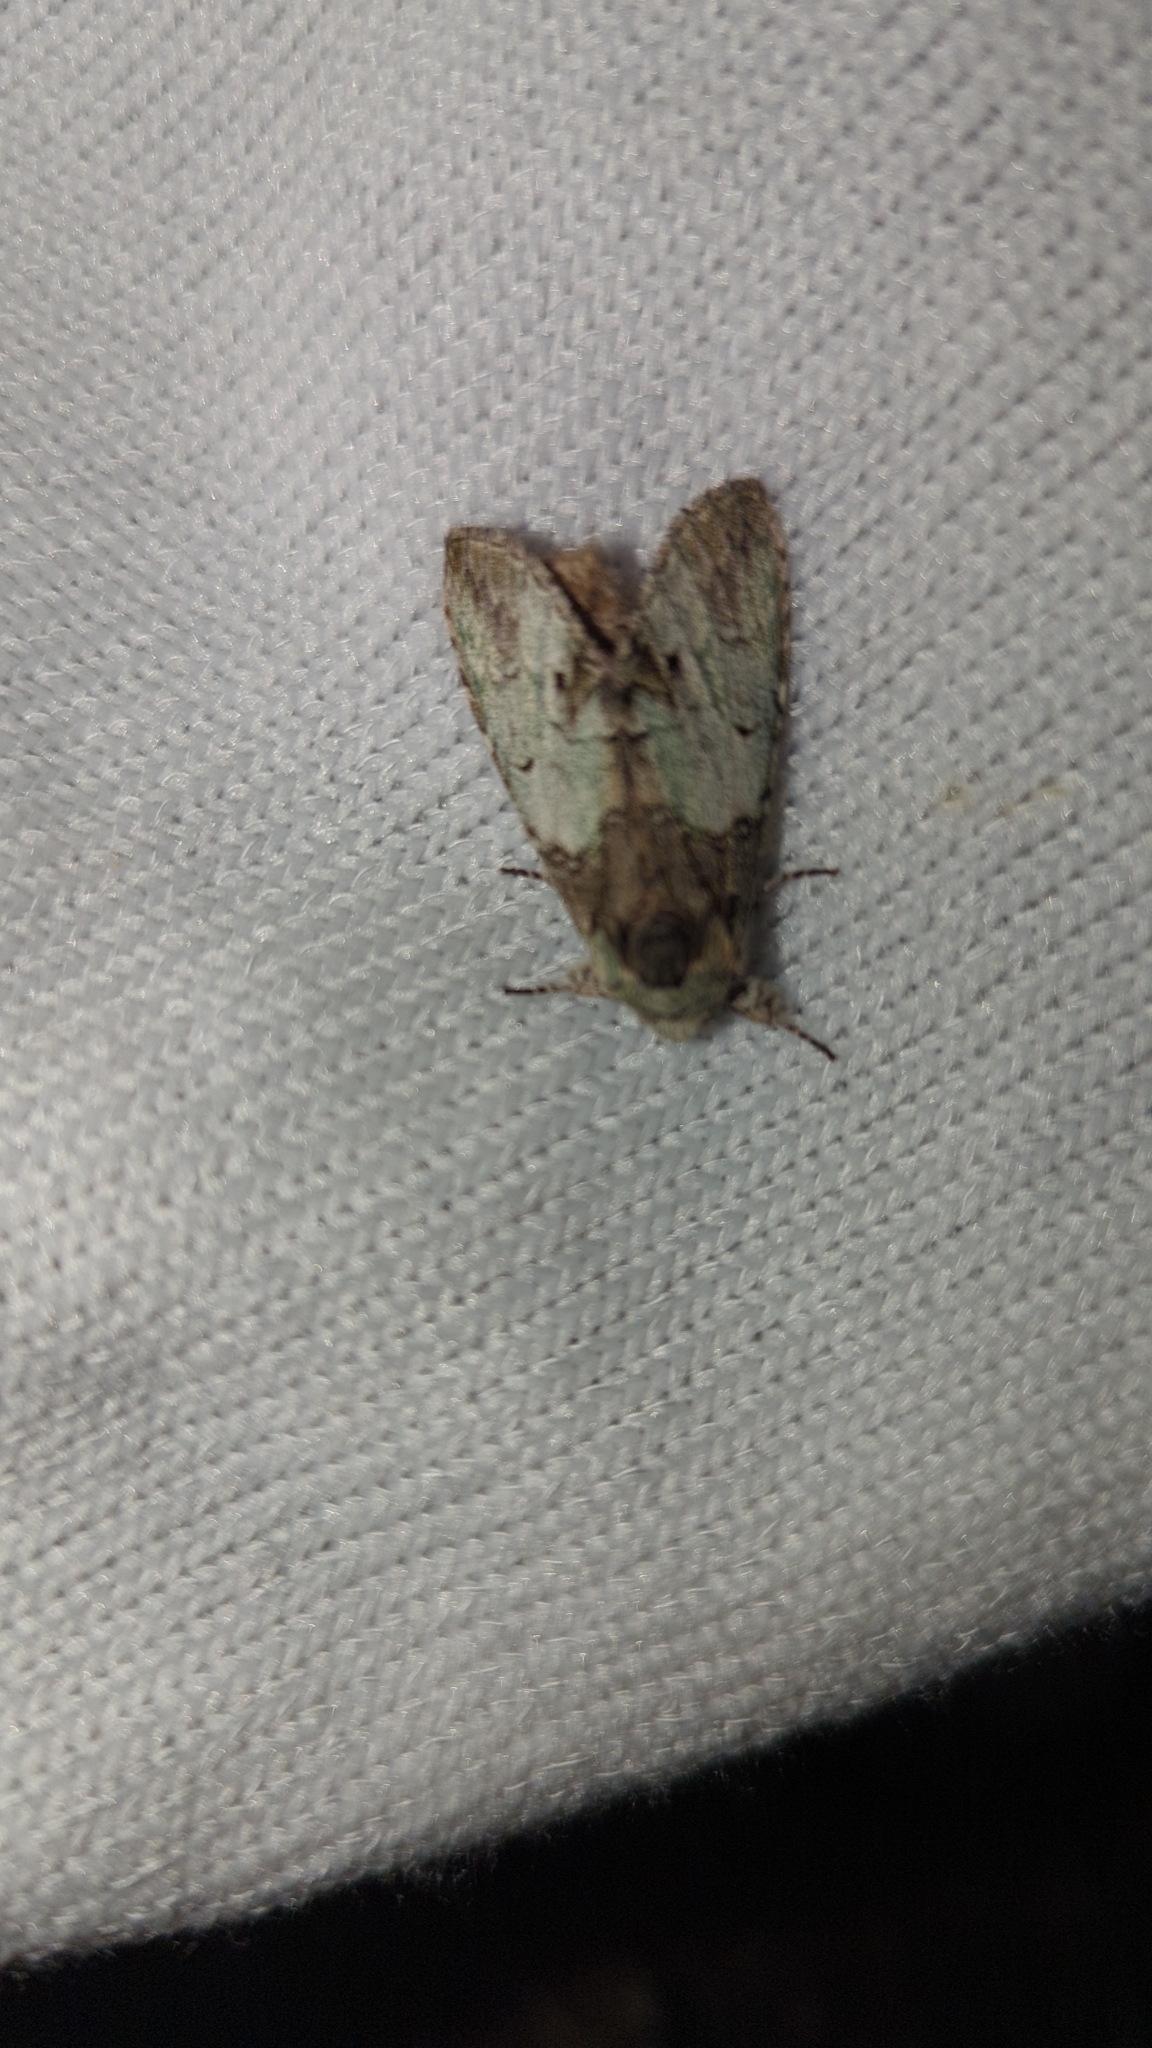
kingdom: Animalia
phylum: Arthropoda
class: Insecta
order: Lepidoptera
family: Notodontidae
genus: Macrurocampa
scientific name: Macrurocampa marthesia
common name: Mottled prominent
